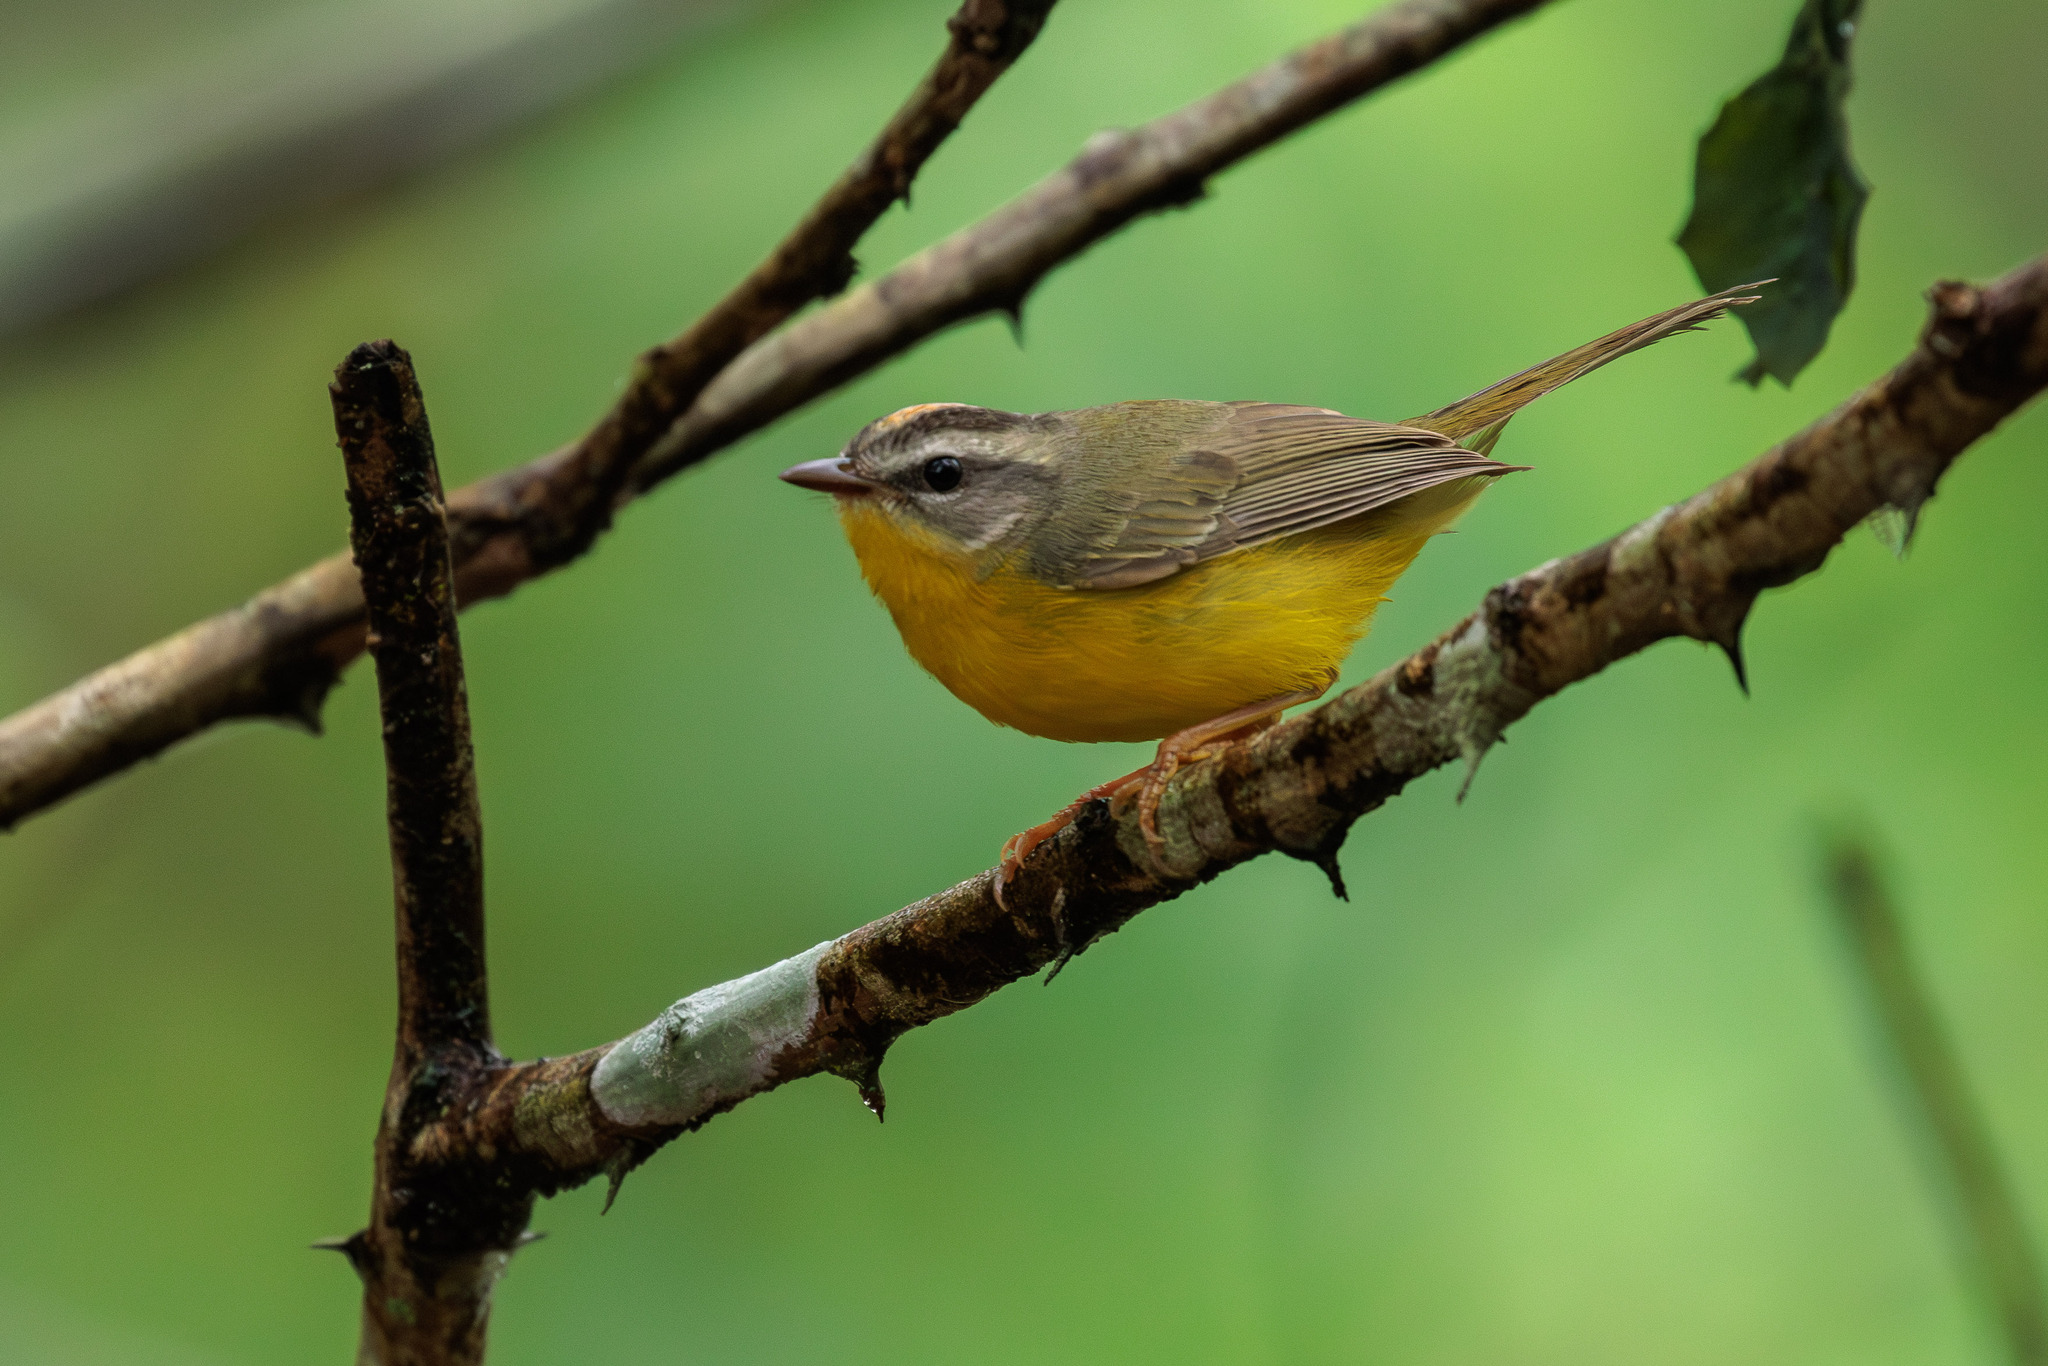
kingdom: Animalia
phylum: Chordata
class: Aves
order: Passeriformes
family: Parulidae
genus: Basileuterus
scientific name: Basileuterus culicivorus
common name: Golden-crowned warbler
